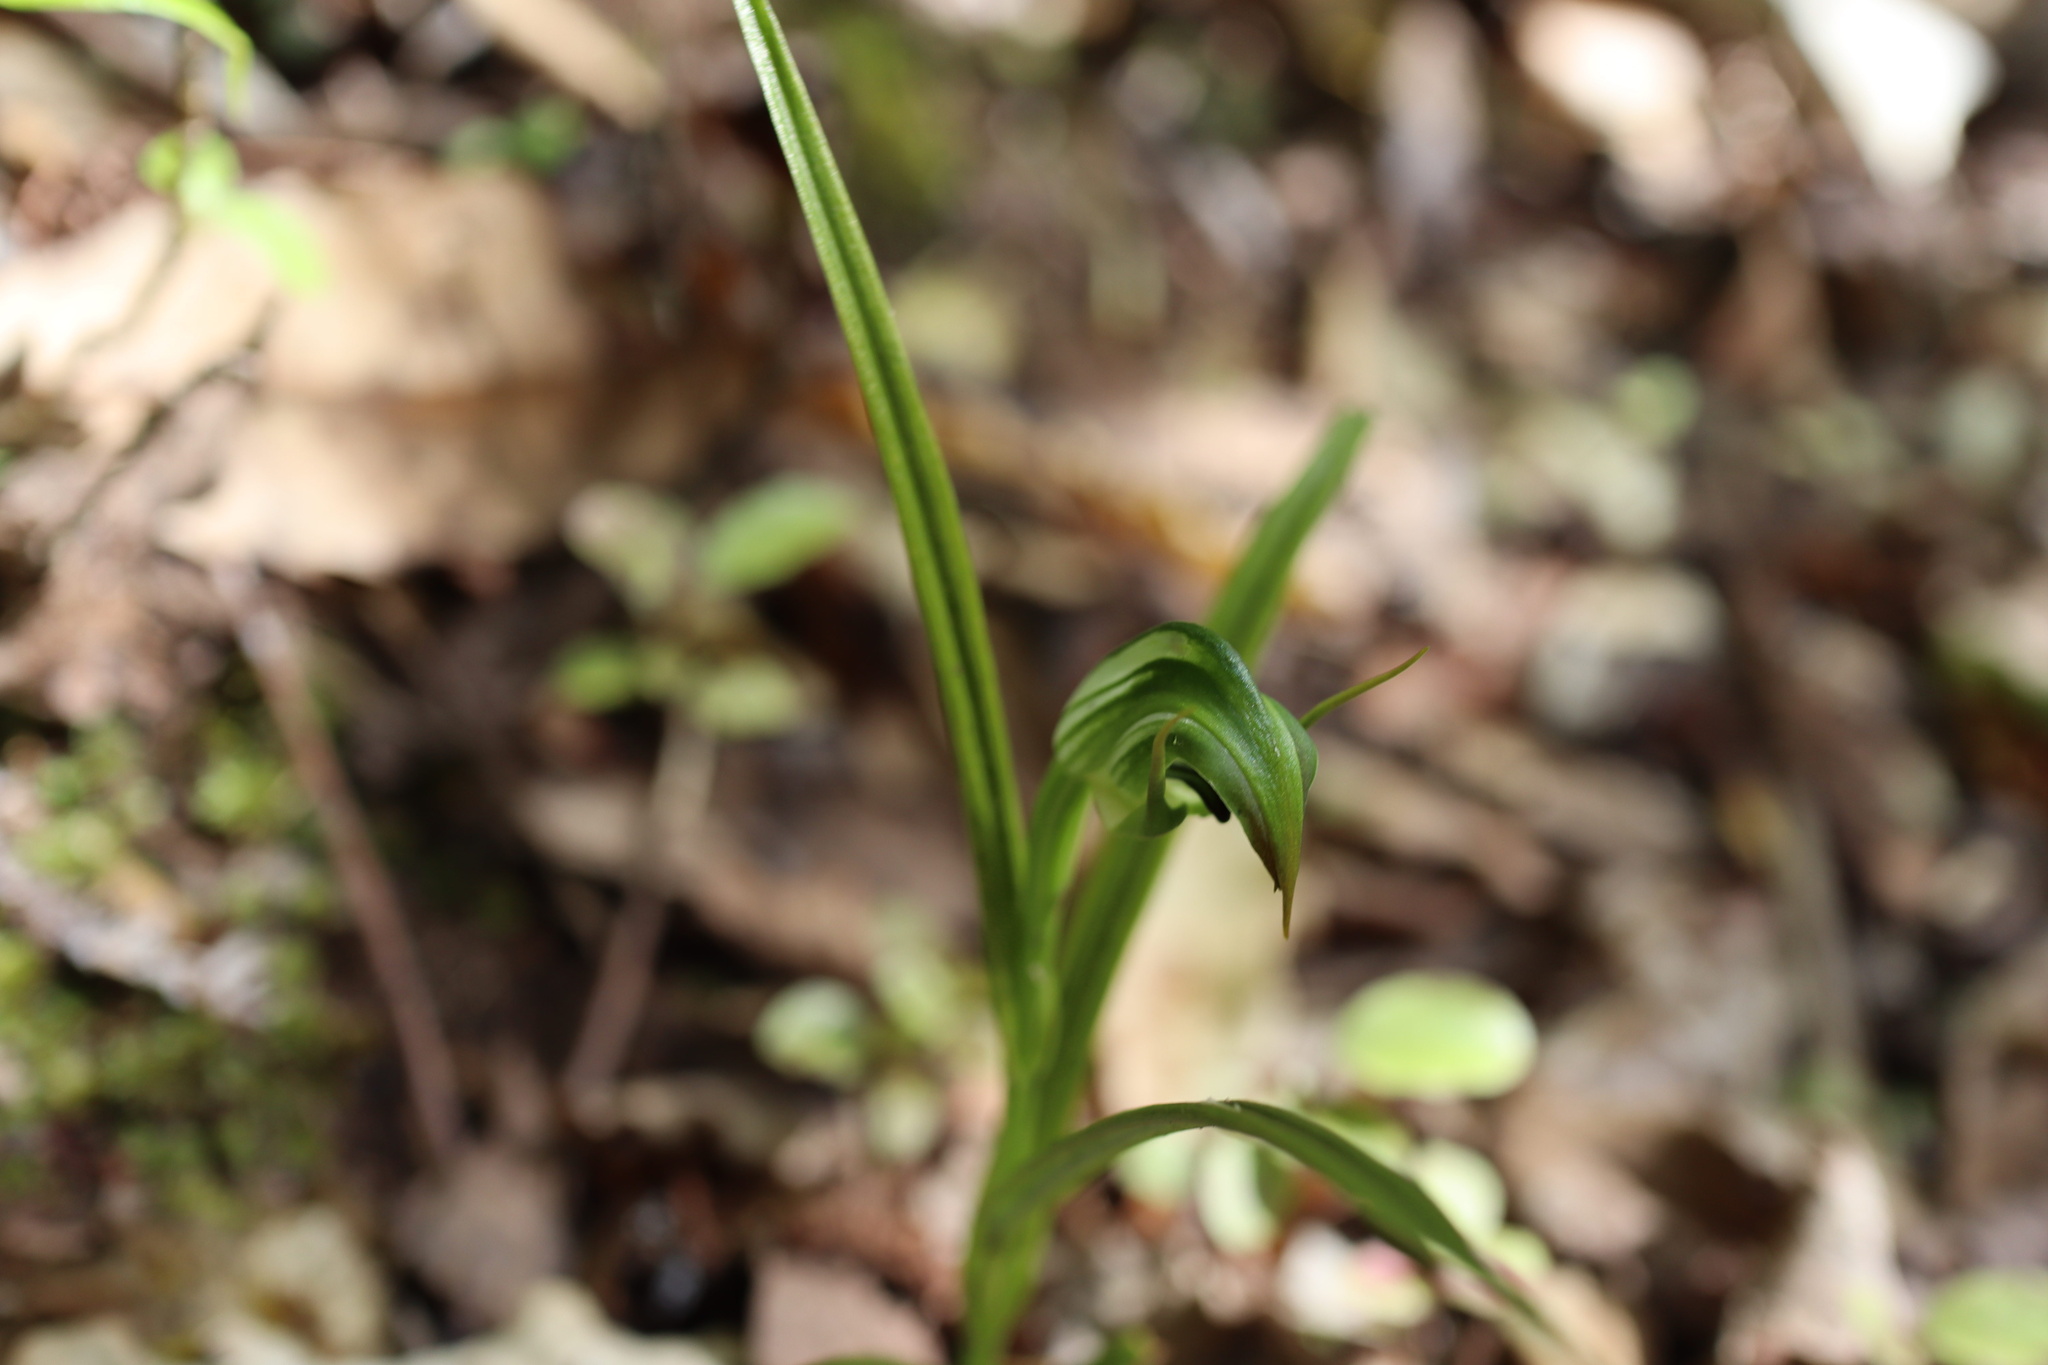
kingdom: Plantae
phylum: Tracheophyta
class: Liliopsida
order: Asparagales
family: Orchidaceae
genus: Pterostylis
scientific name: Pterostylis graminea
